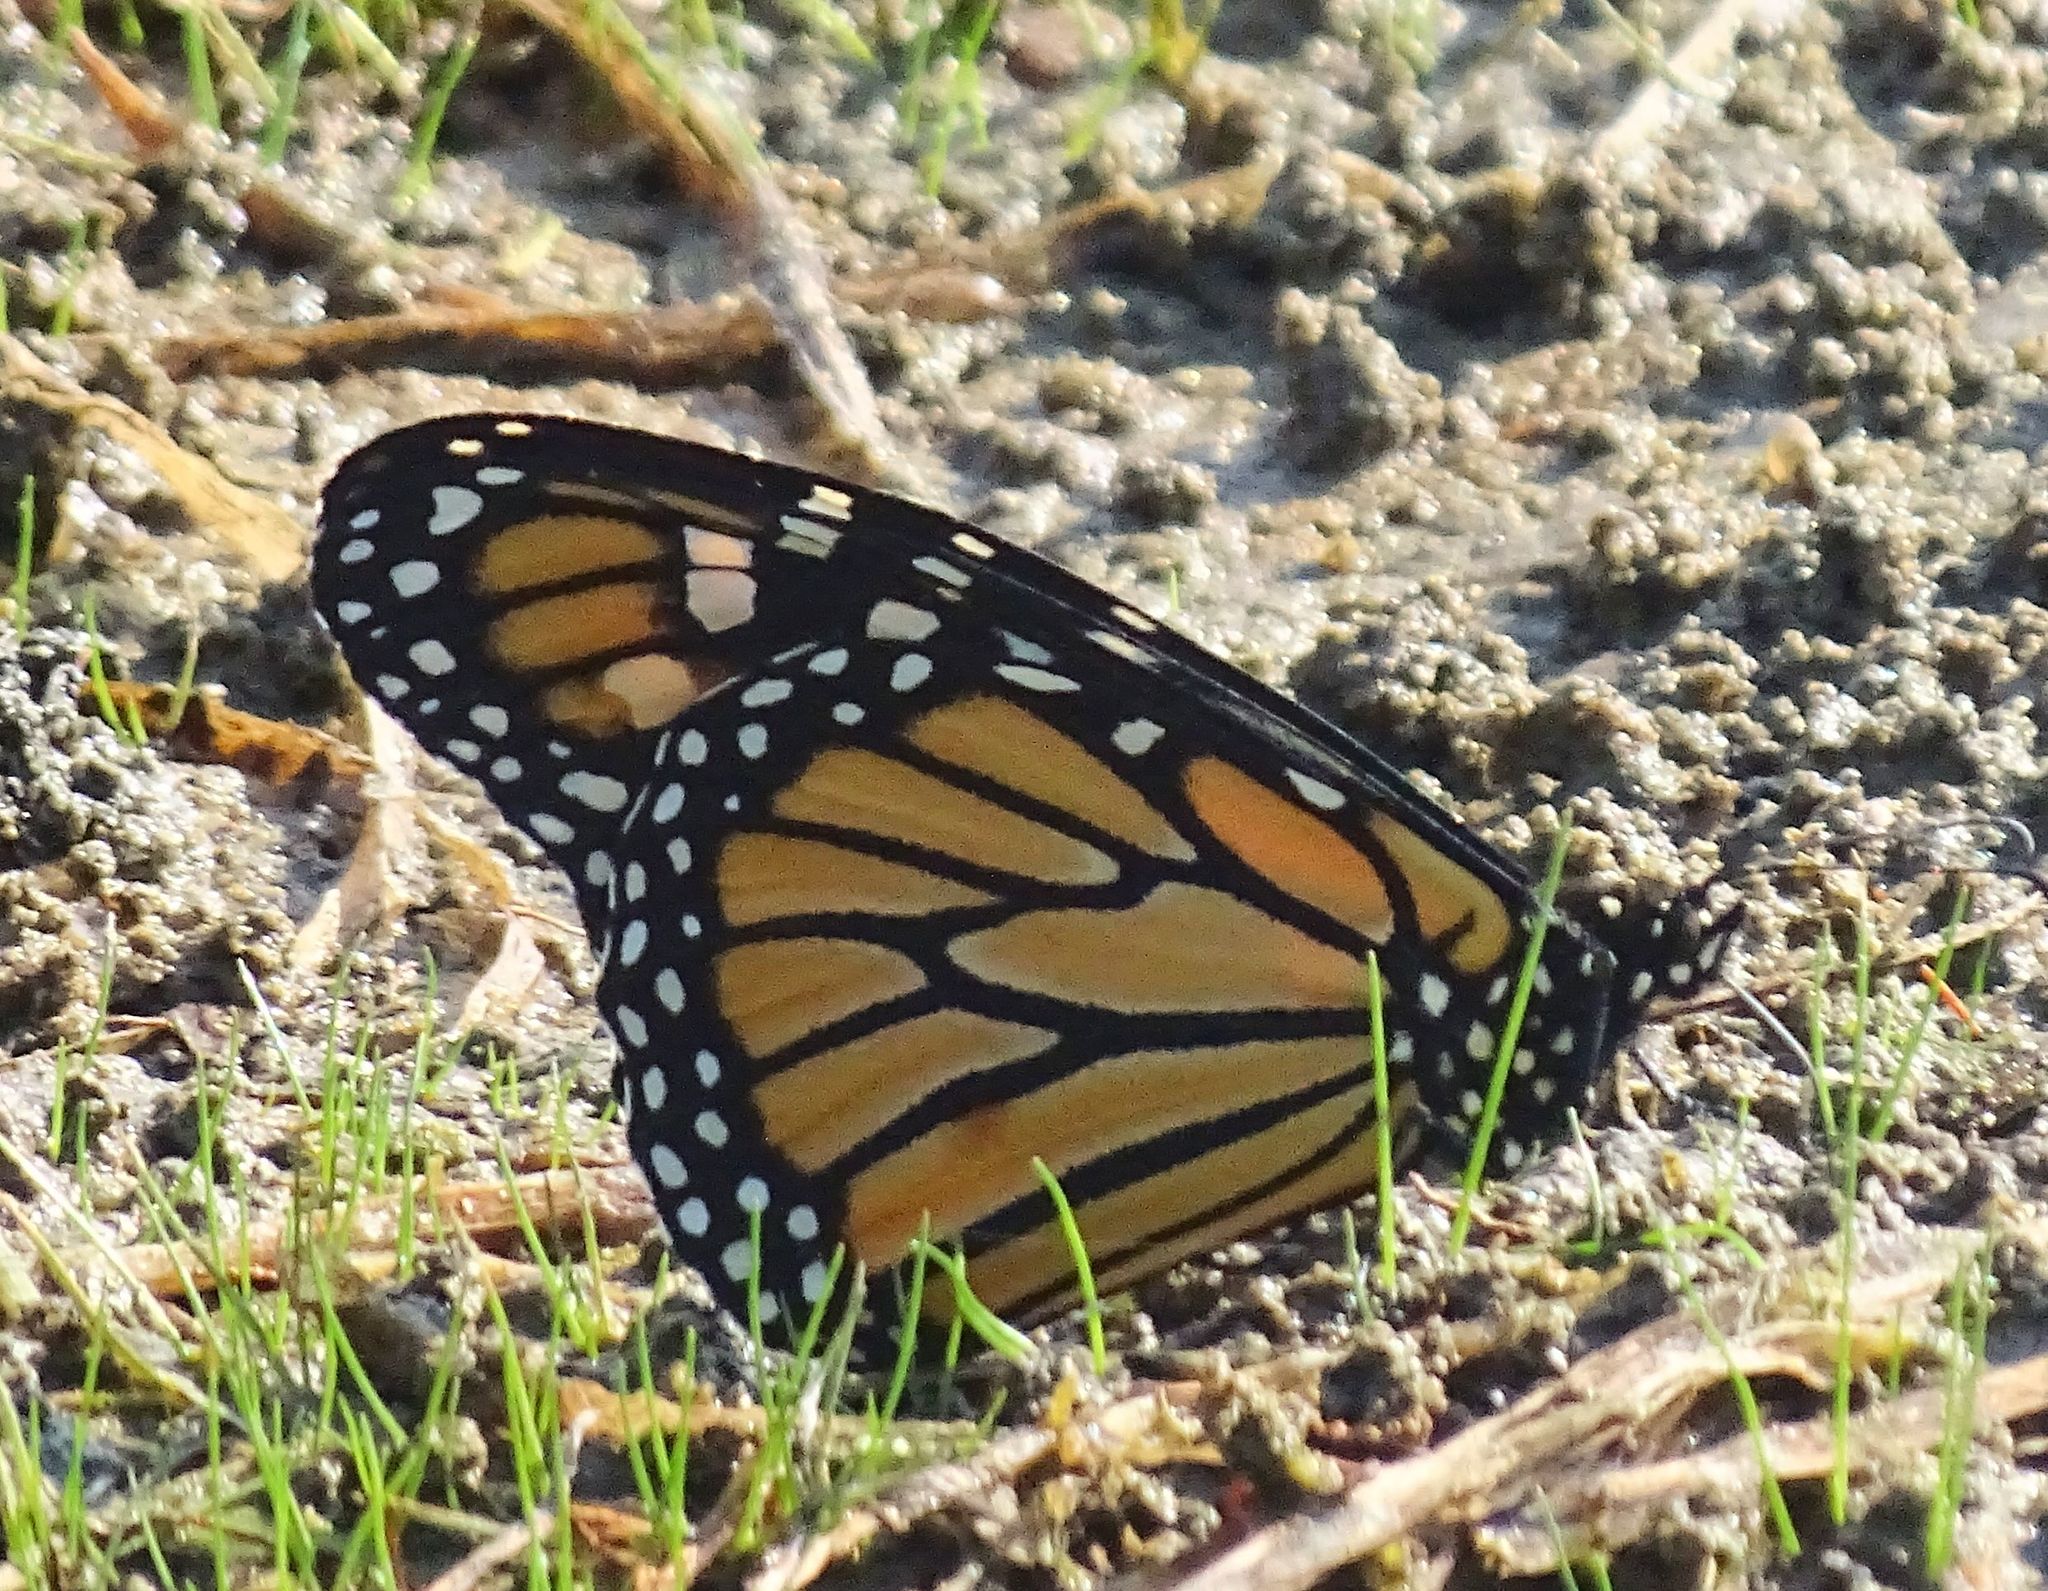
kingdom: Animalia
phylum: Arthropoda
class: Insecta
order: Lepidoptera
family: Nymphalidae
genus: Danaus
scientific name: Danaus plexippus
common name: Monarch
